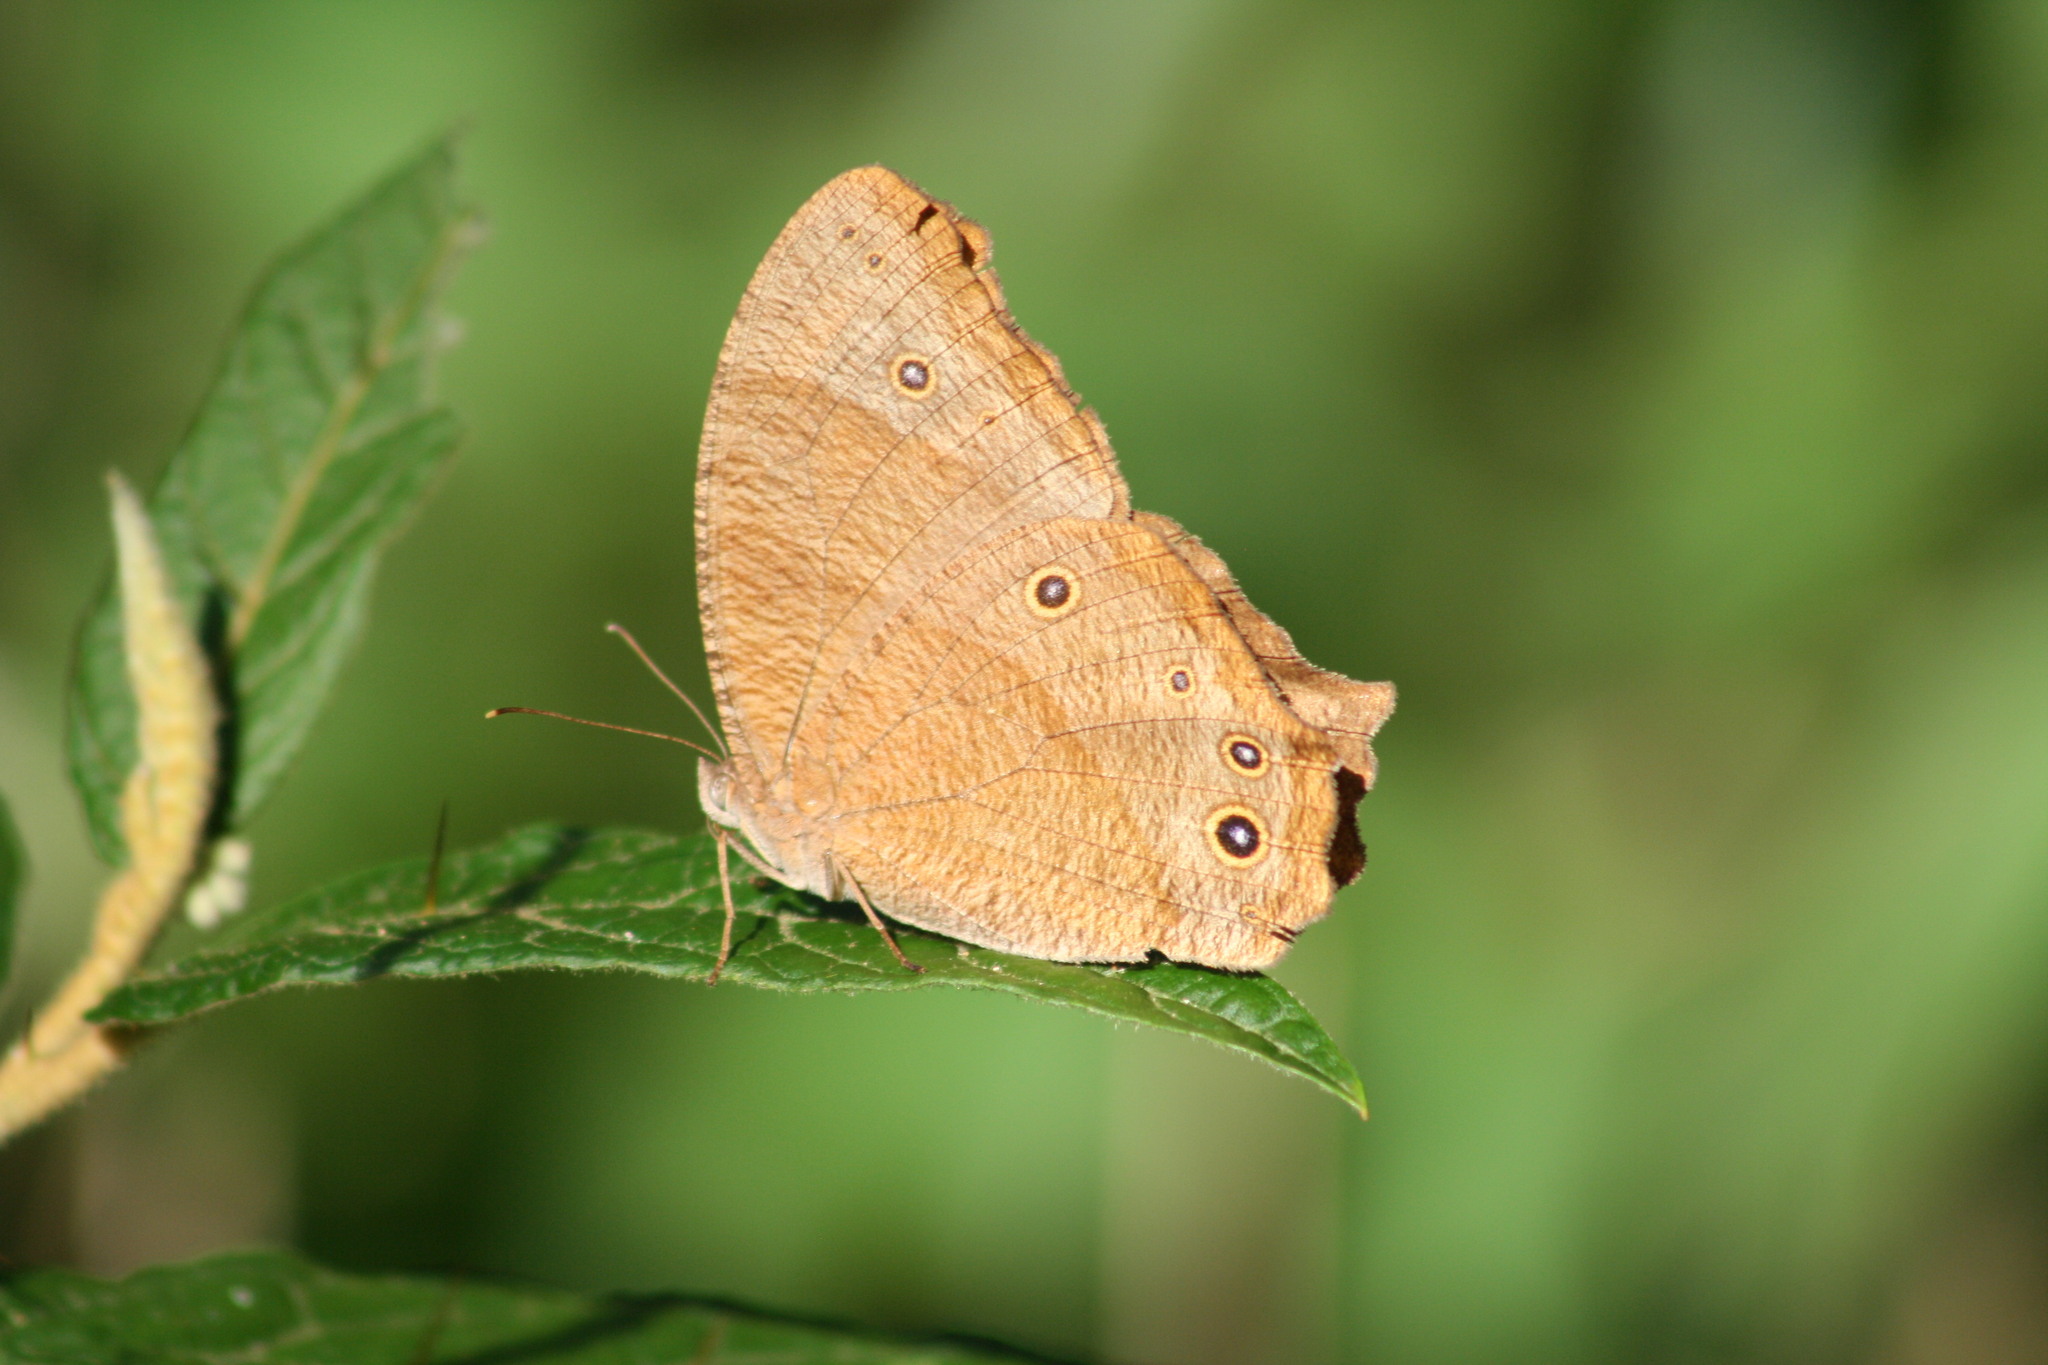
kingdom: Animalia
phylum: Arthropoda
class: Insecta
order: Lepidoptera
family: Nymphalidae
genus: Melanitis
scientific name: Melanitis leda
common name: Twilight brown
